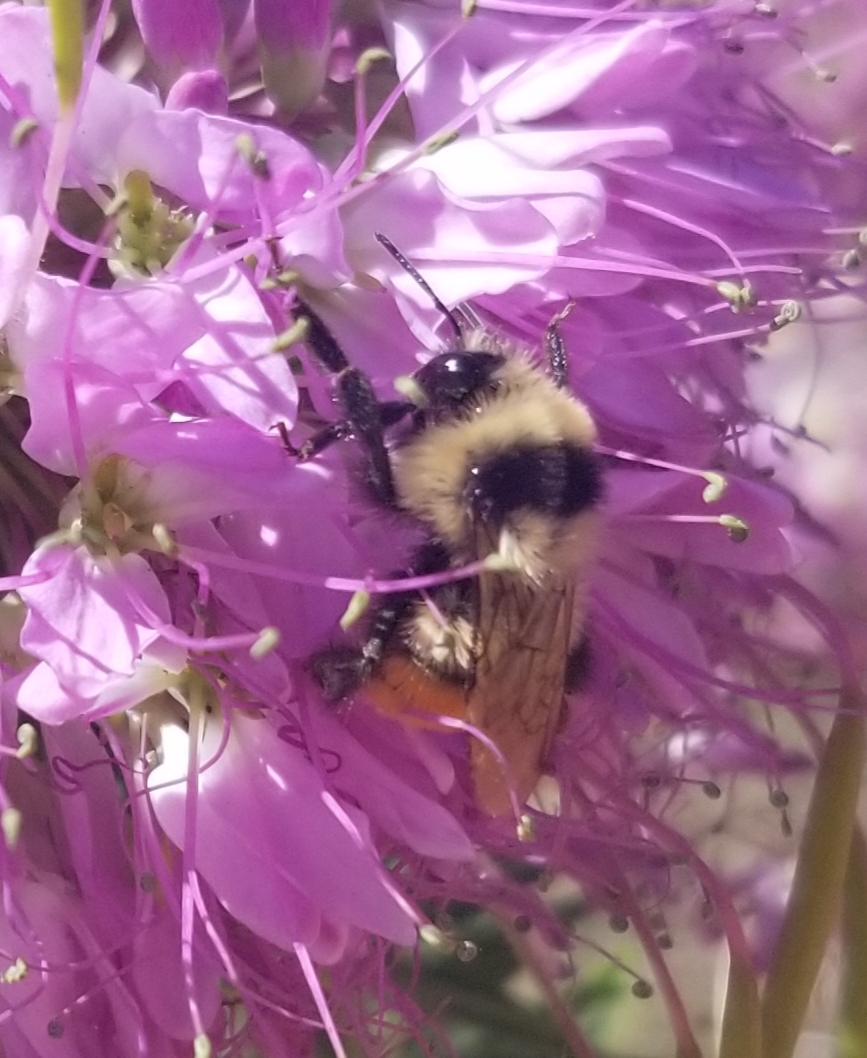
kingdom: Animalia
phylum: Arthropoda
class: Insecta
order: Hymenoptera
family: Apidae
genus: Bombus
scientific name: Bombus huntii
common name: Hunt bumble bee
